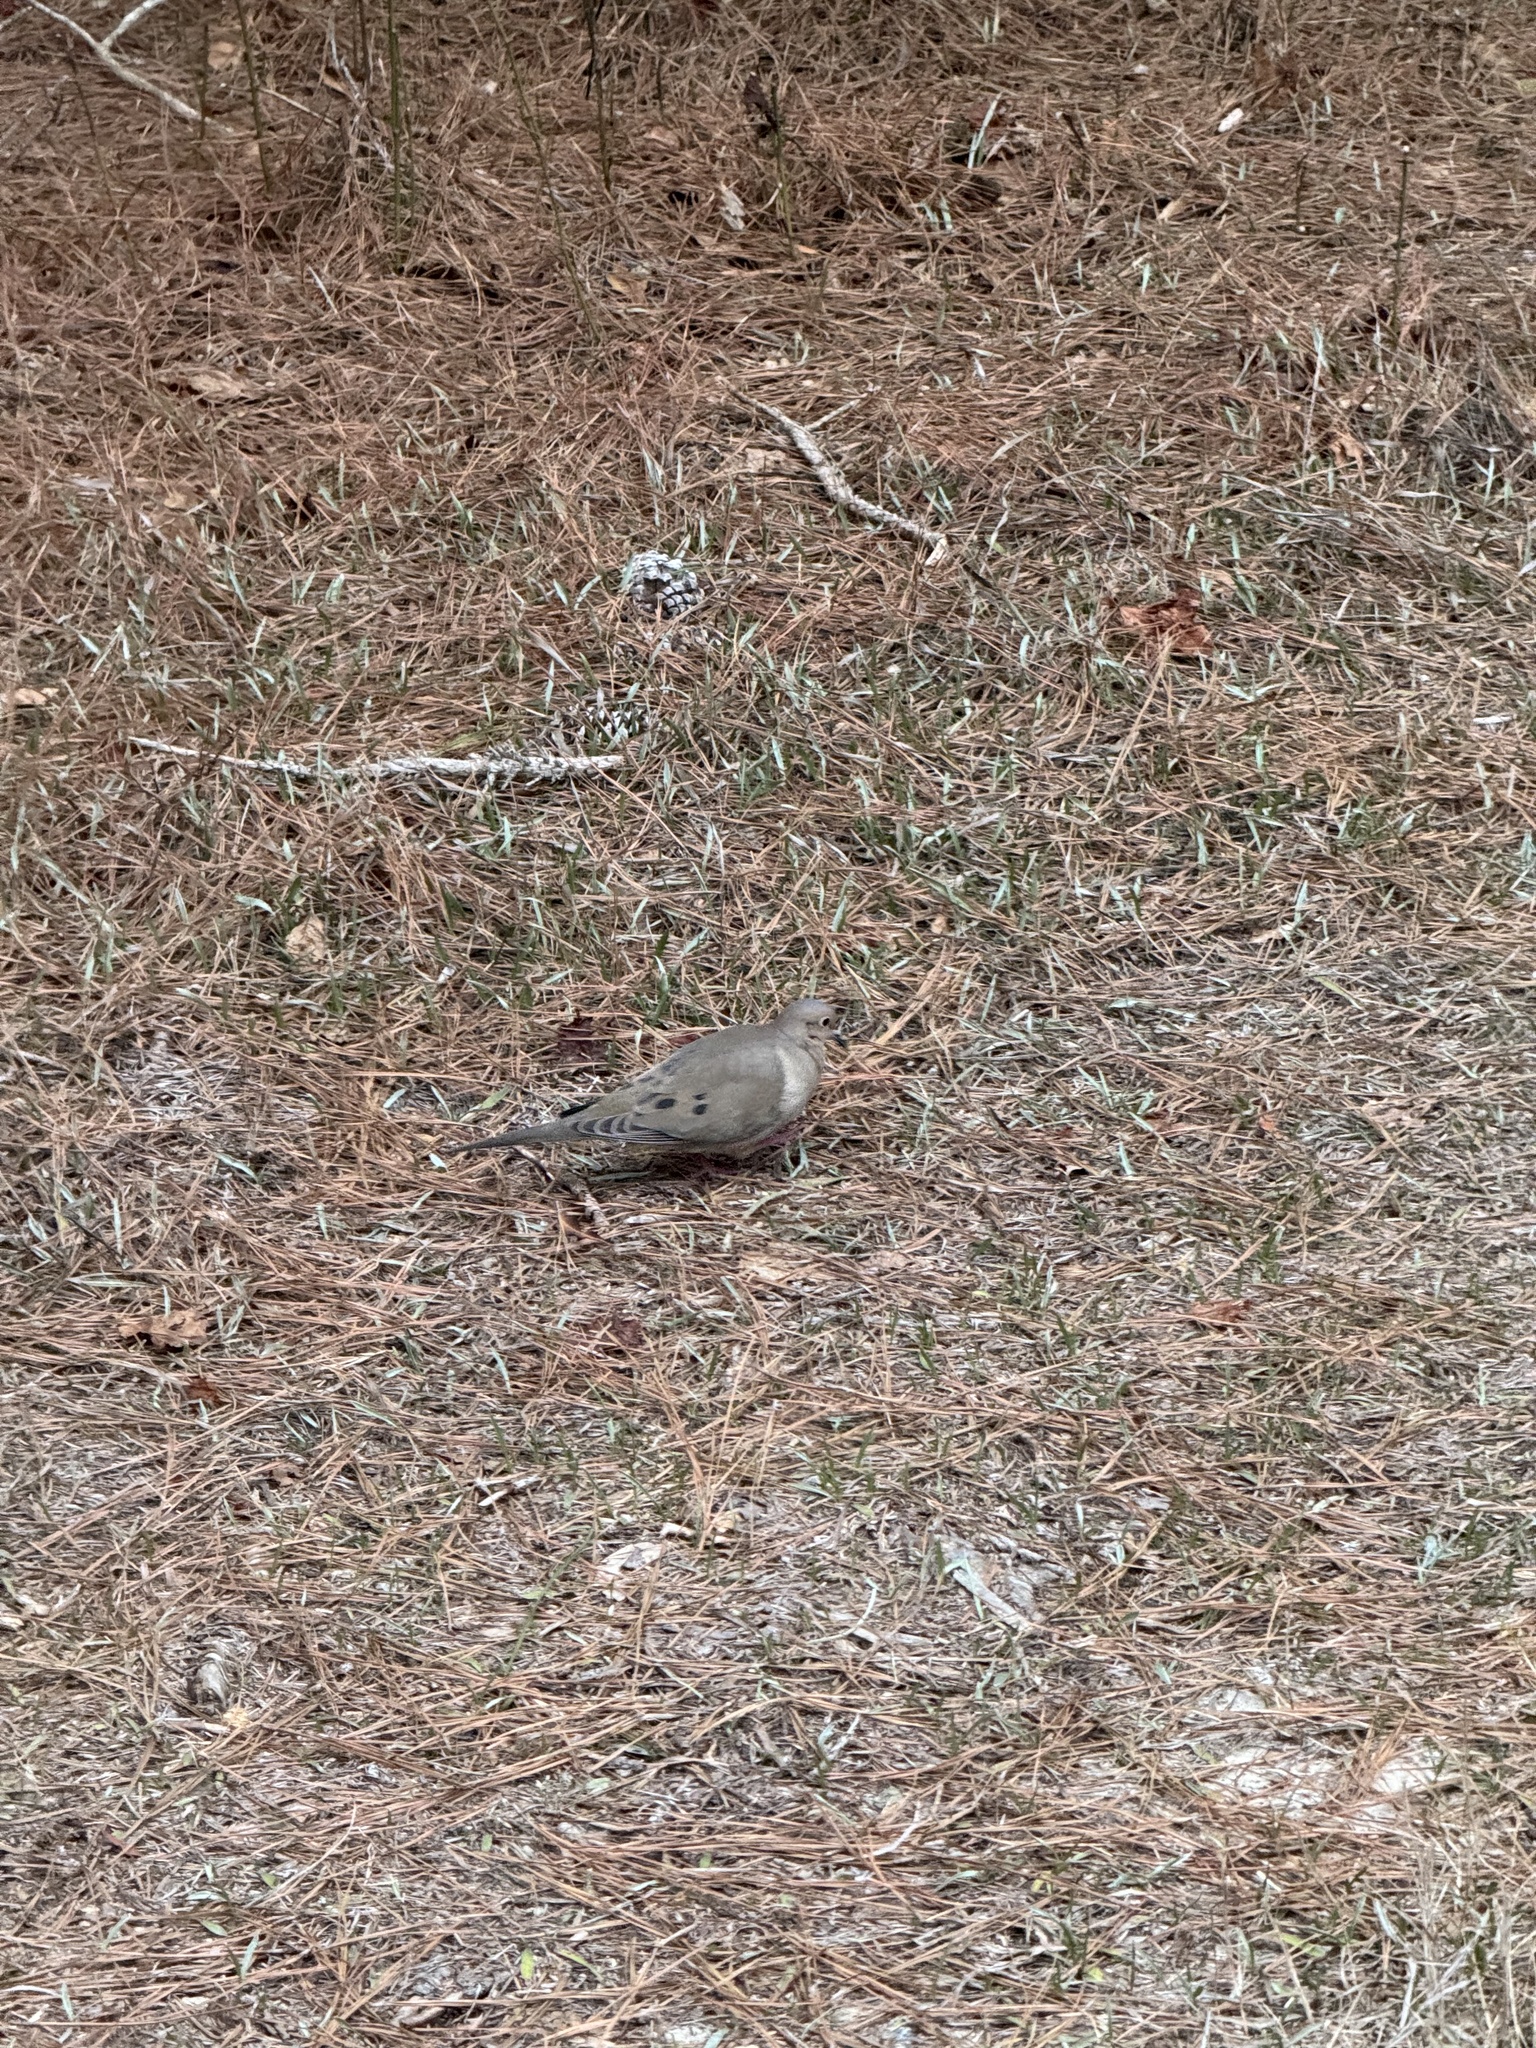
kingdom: Animalia
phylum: Chordata
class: Aves
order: Columbiformes
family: Columbidae
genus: Zenaida
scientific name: Zenaida macroura
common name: Mourning dove
